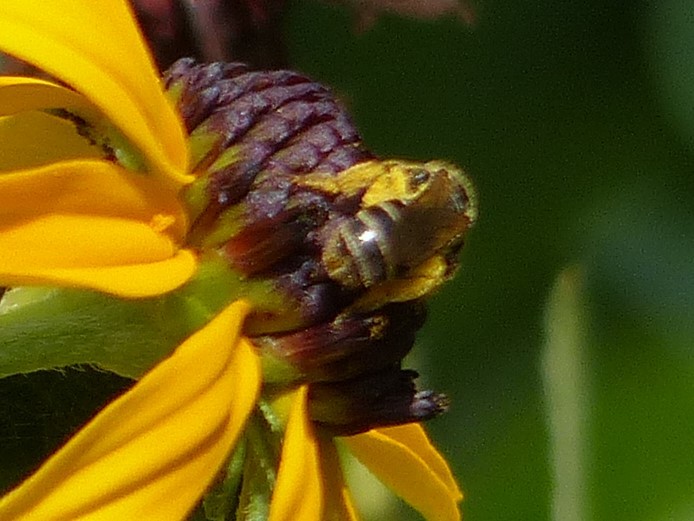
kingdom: Animalia
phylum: Arthropoda
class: Insecta
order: Hymenoptera
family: Halictidae
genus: Halictus
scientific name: Halictus ligatus
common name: Ligated furrow bee
